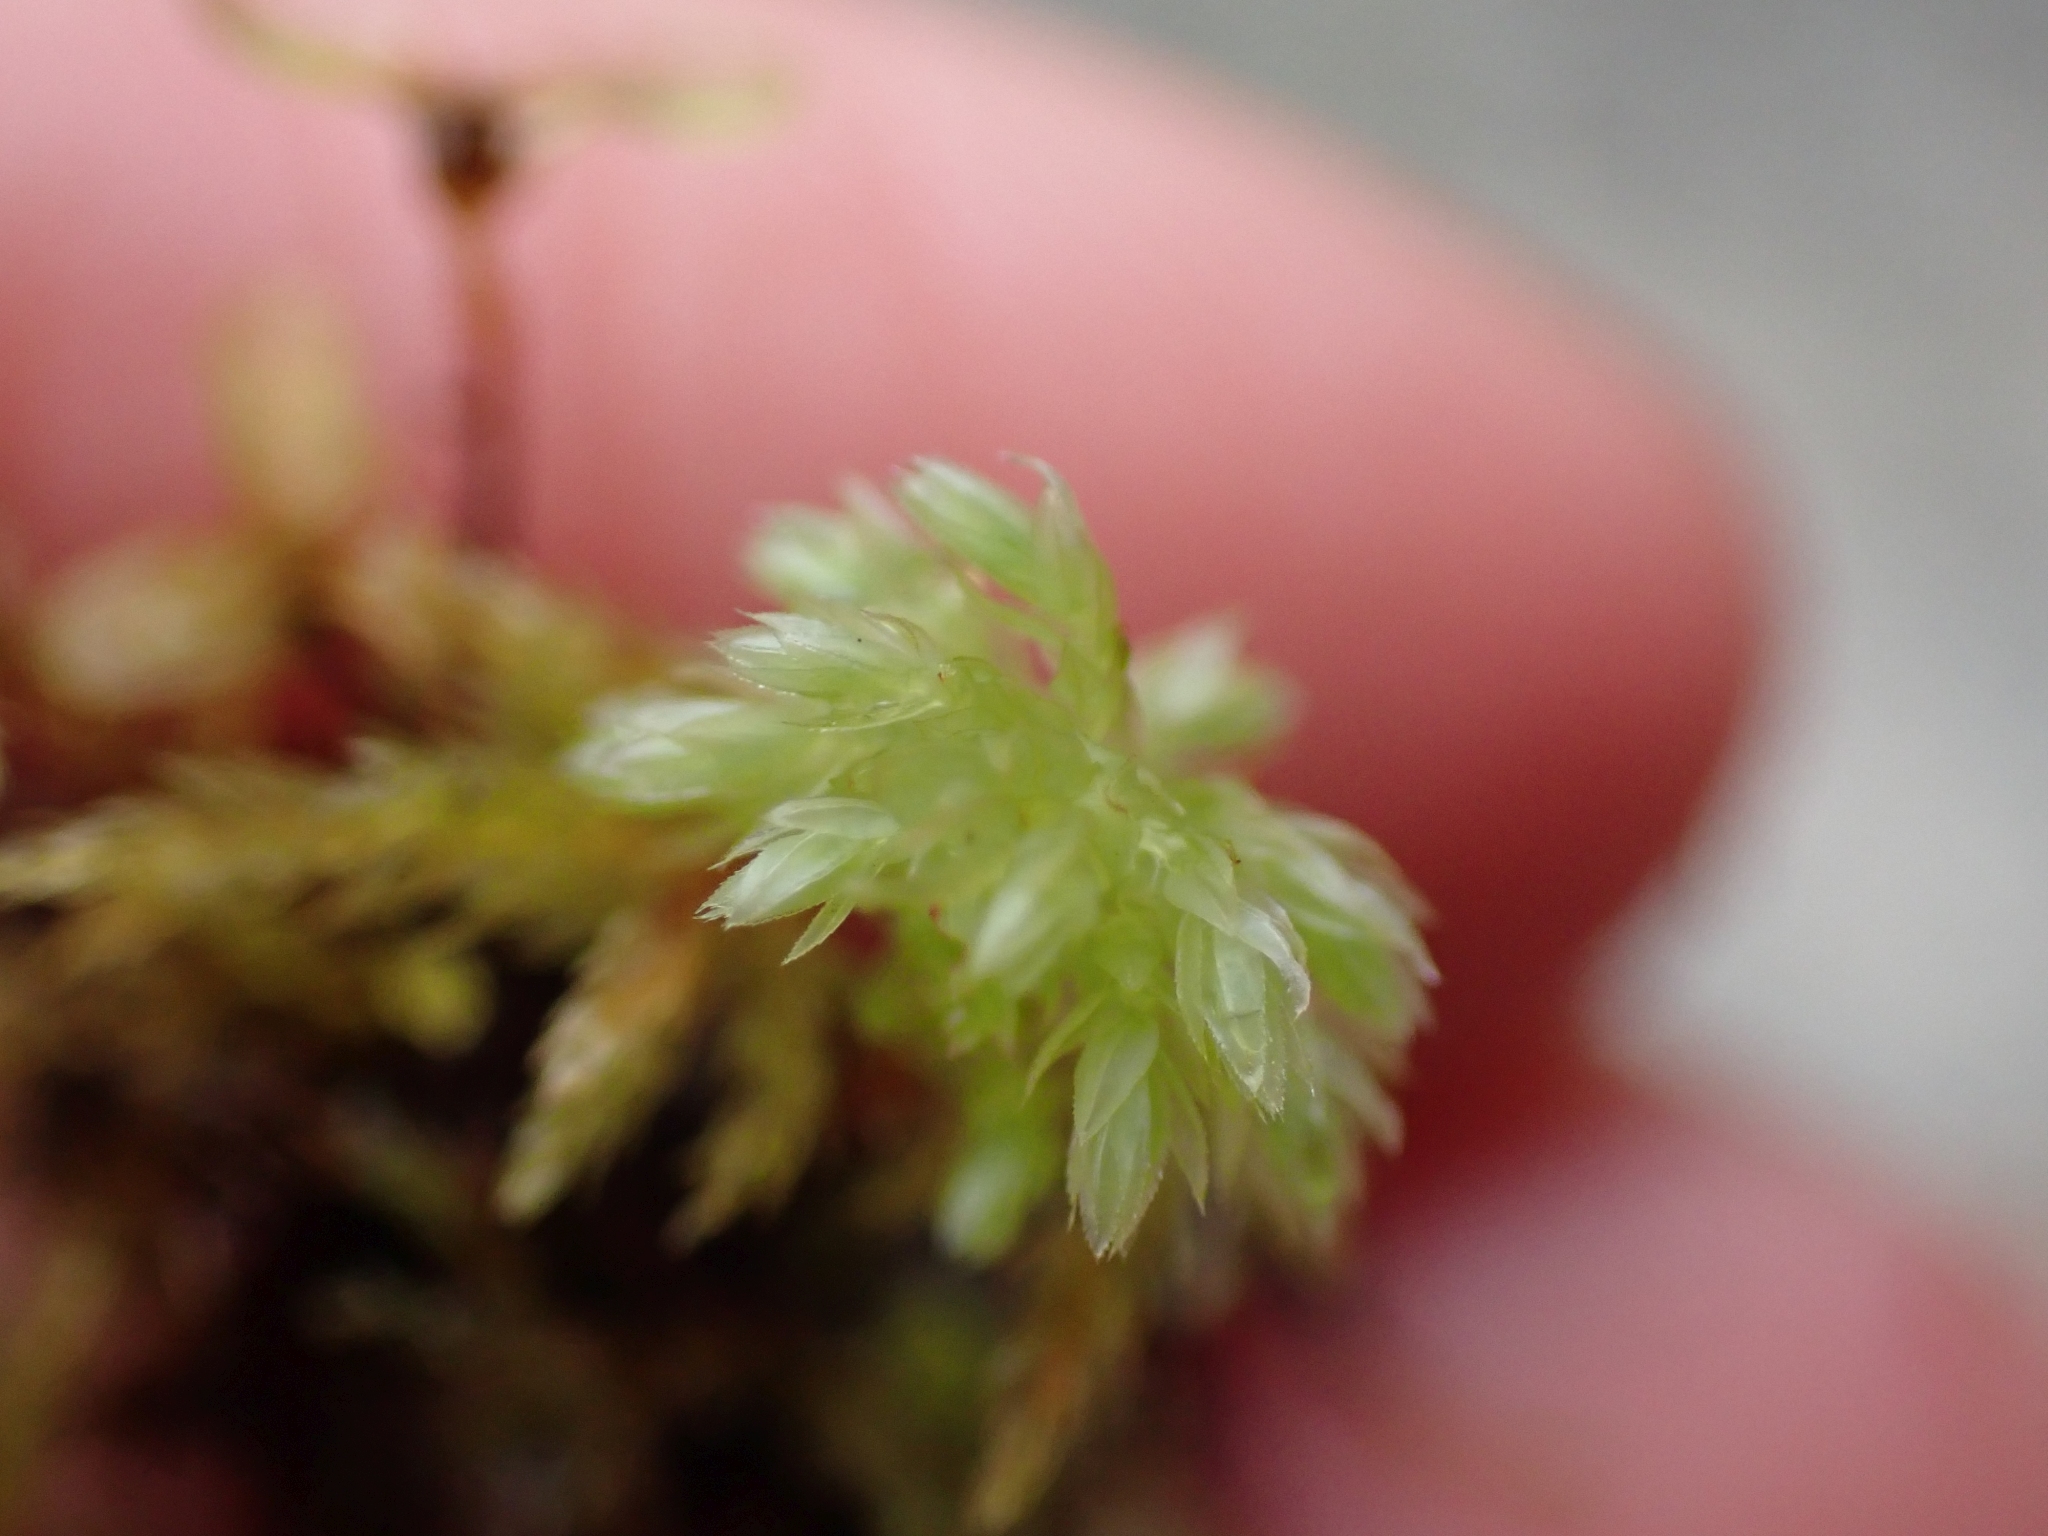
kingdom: Plantae
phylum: Bryophyta
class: Bryopsida
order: Bryales
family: Mniaceae
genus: Leucolepis
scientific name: Leucolepis acanthoneura
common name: Leucolepis umbrella moss
